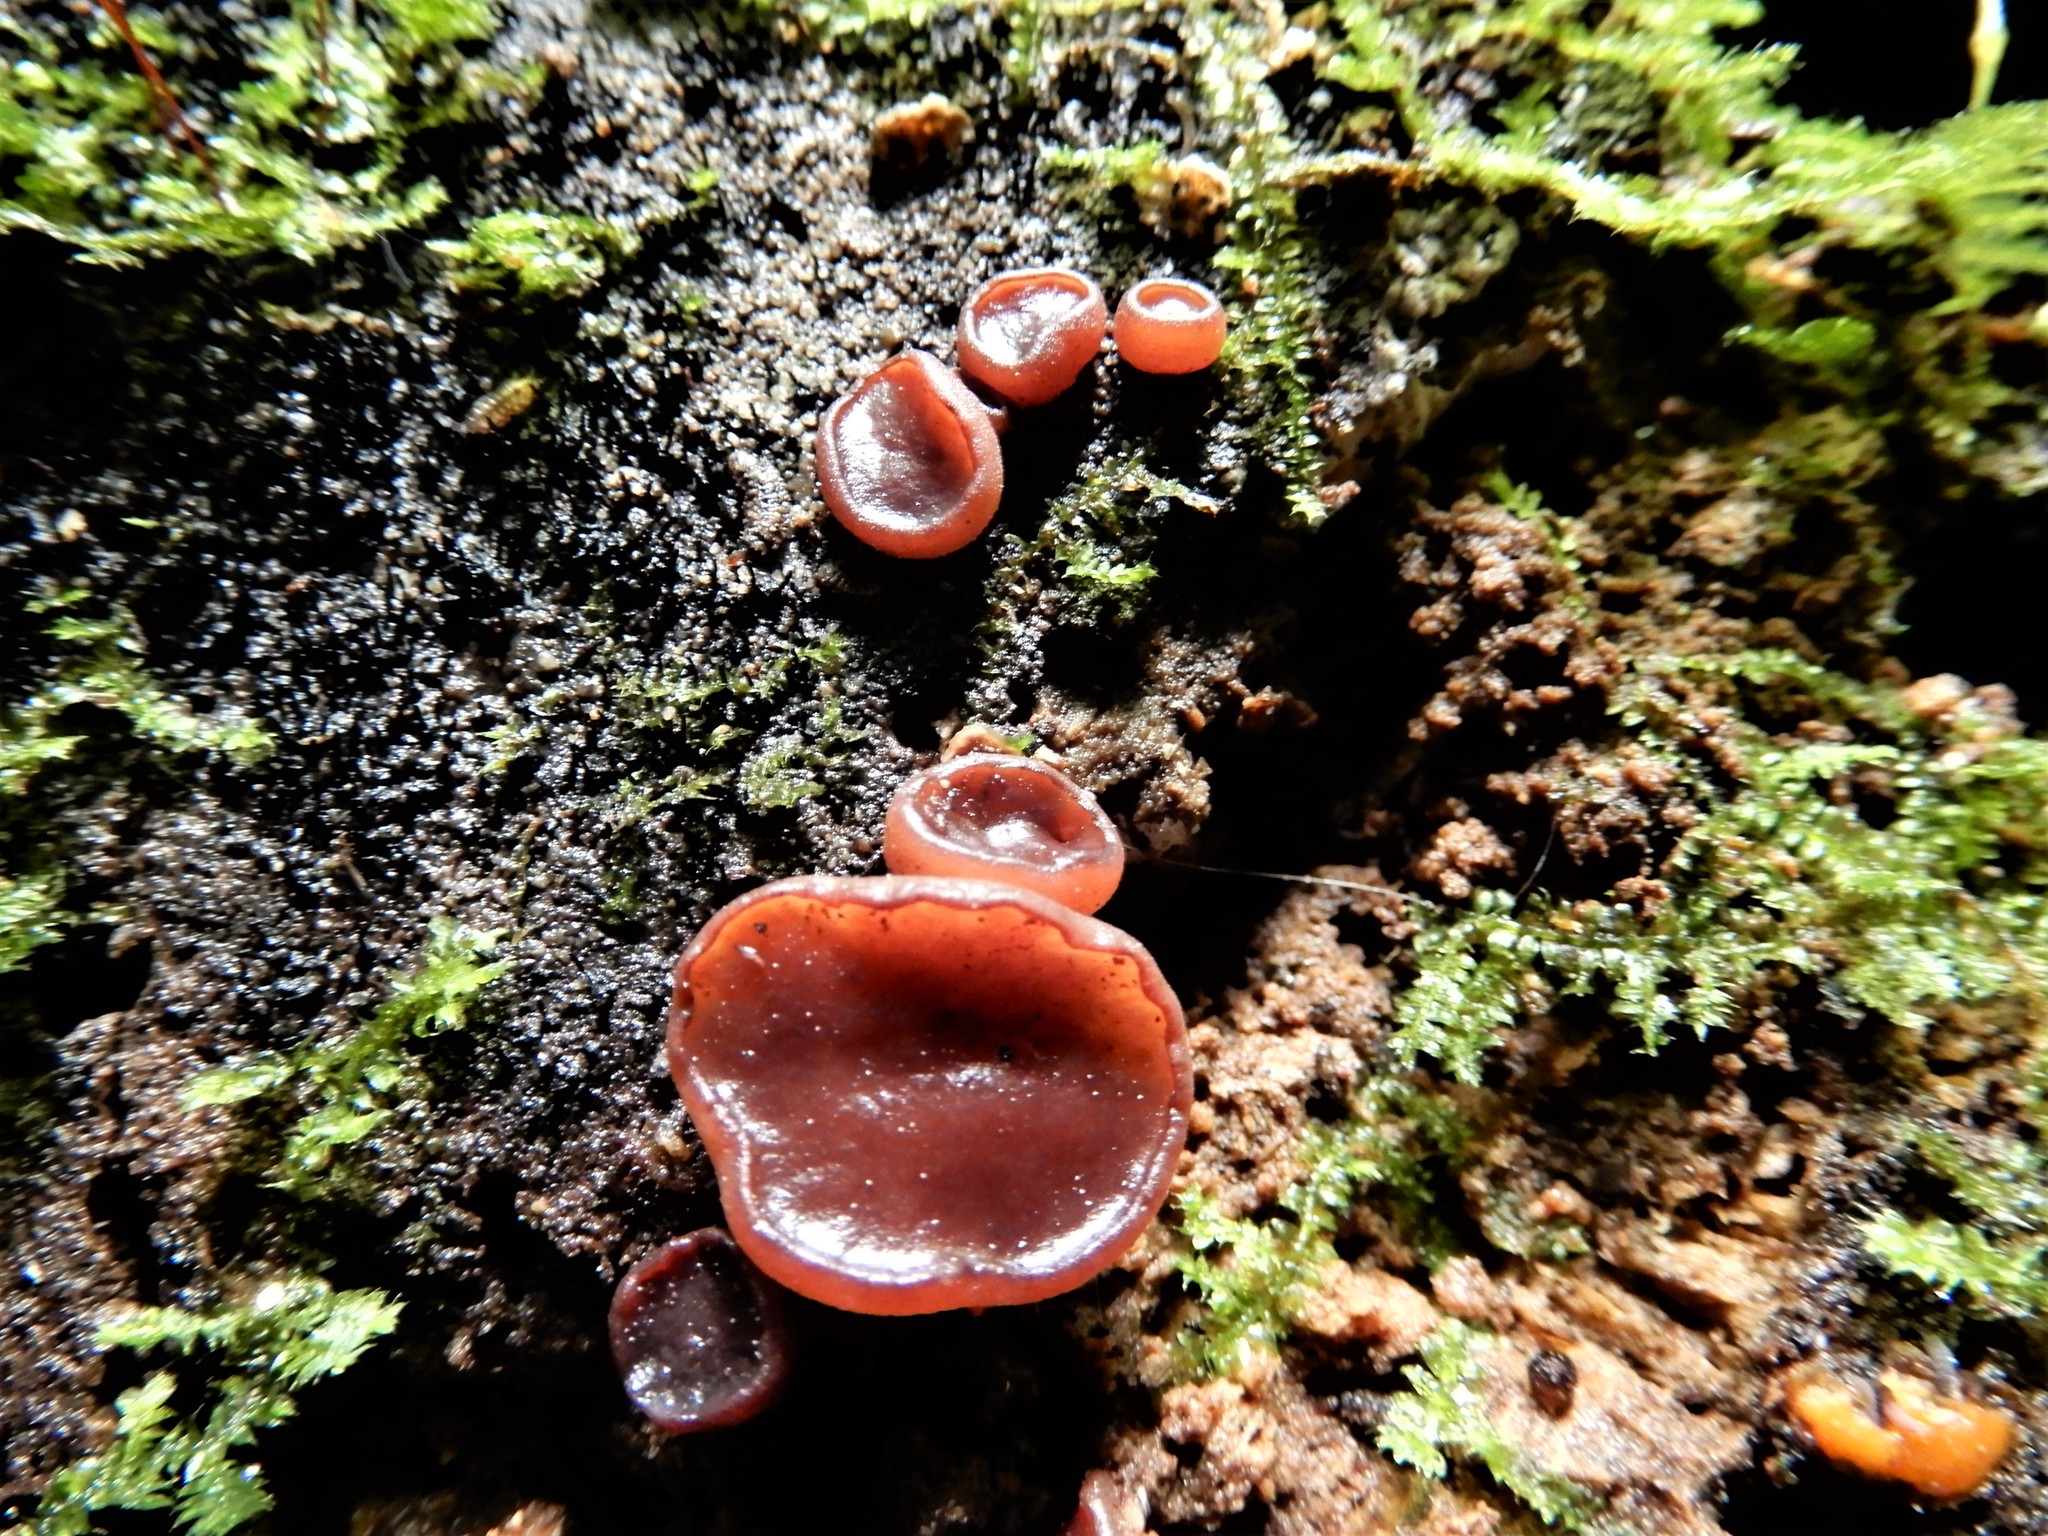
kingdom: Fungi
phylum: Ascomycota
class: Leotiomycetes
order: Helotiales
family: Gelatinodiscaceae
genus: Ascocoryne
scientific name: Ascocoryne sarcoides
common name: Purple jellydisc
